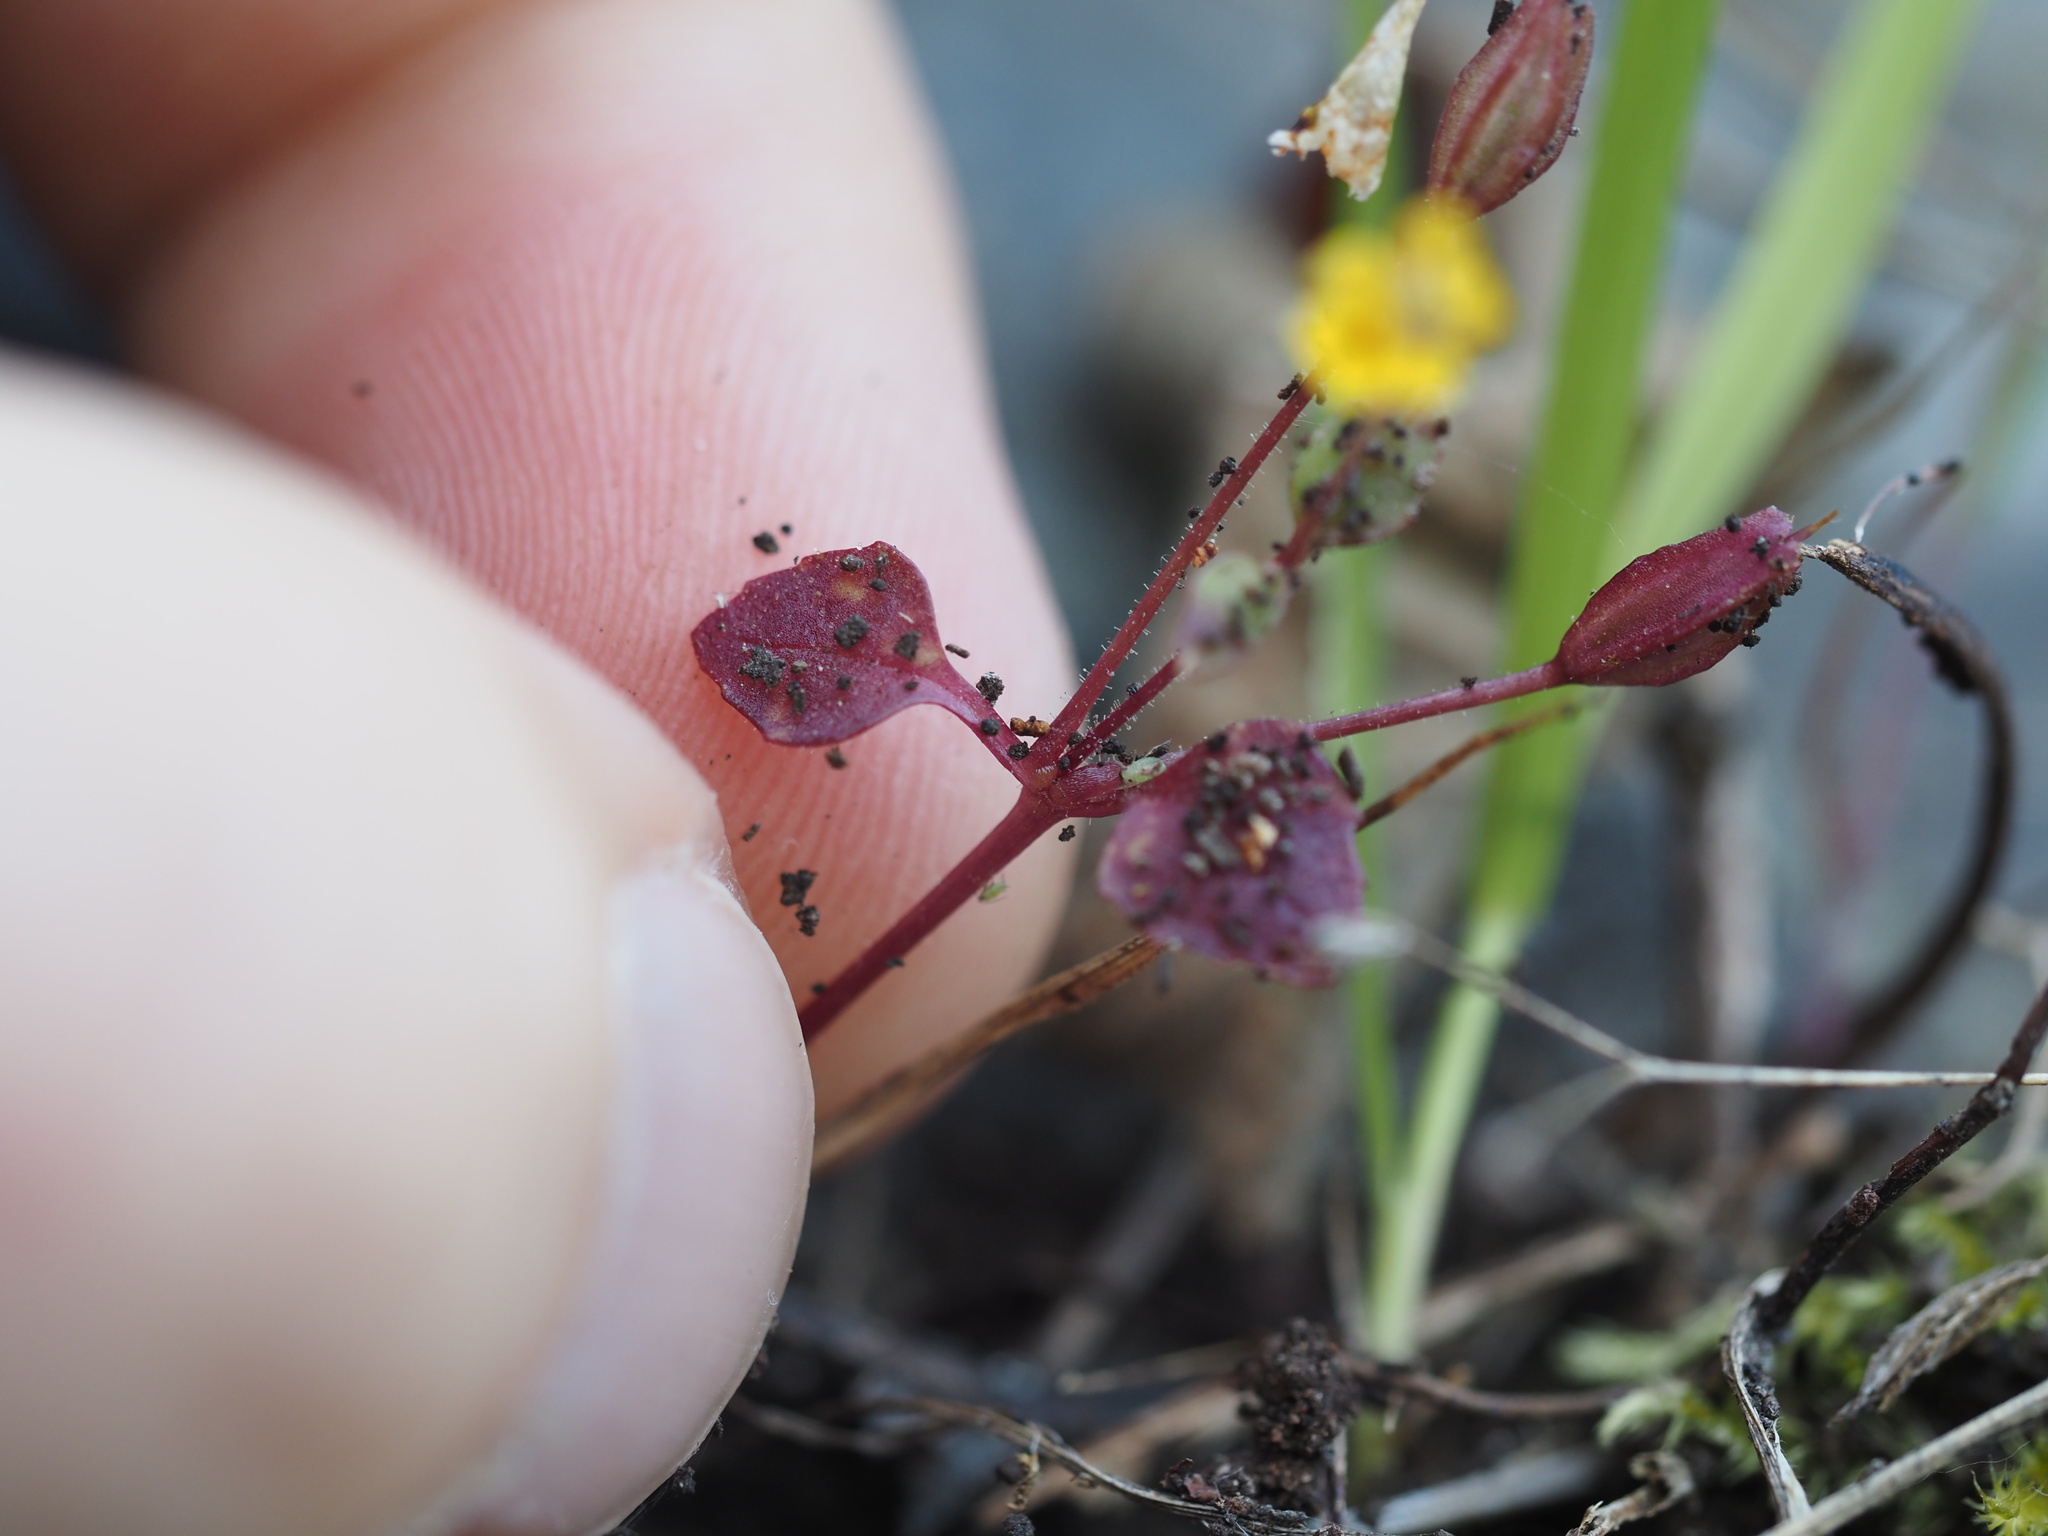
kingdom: Plantae
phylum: Tracheophyta
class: Magnoliopsida
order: Lamiales
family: Phrymaceae
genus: Erythranthe
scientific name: Erythranthe alsinoides
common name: Chickweed monkeyflower
